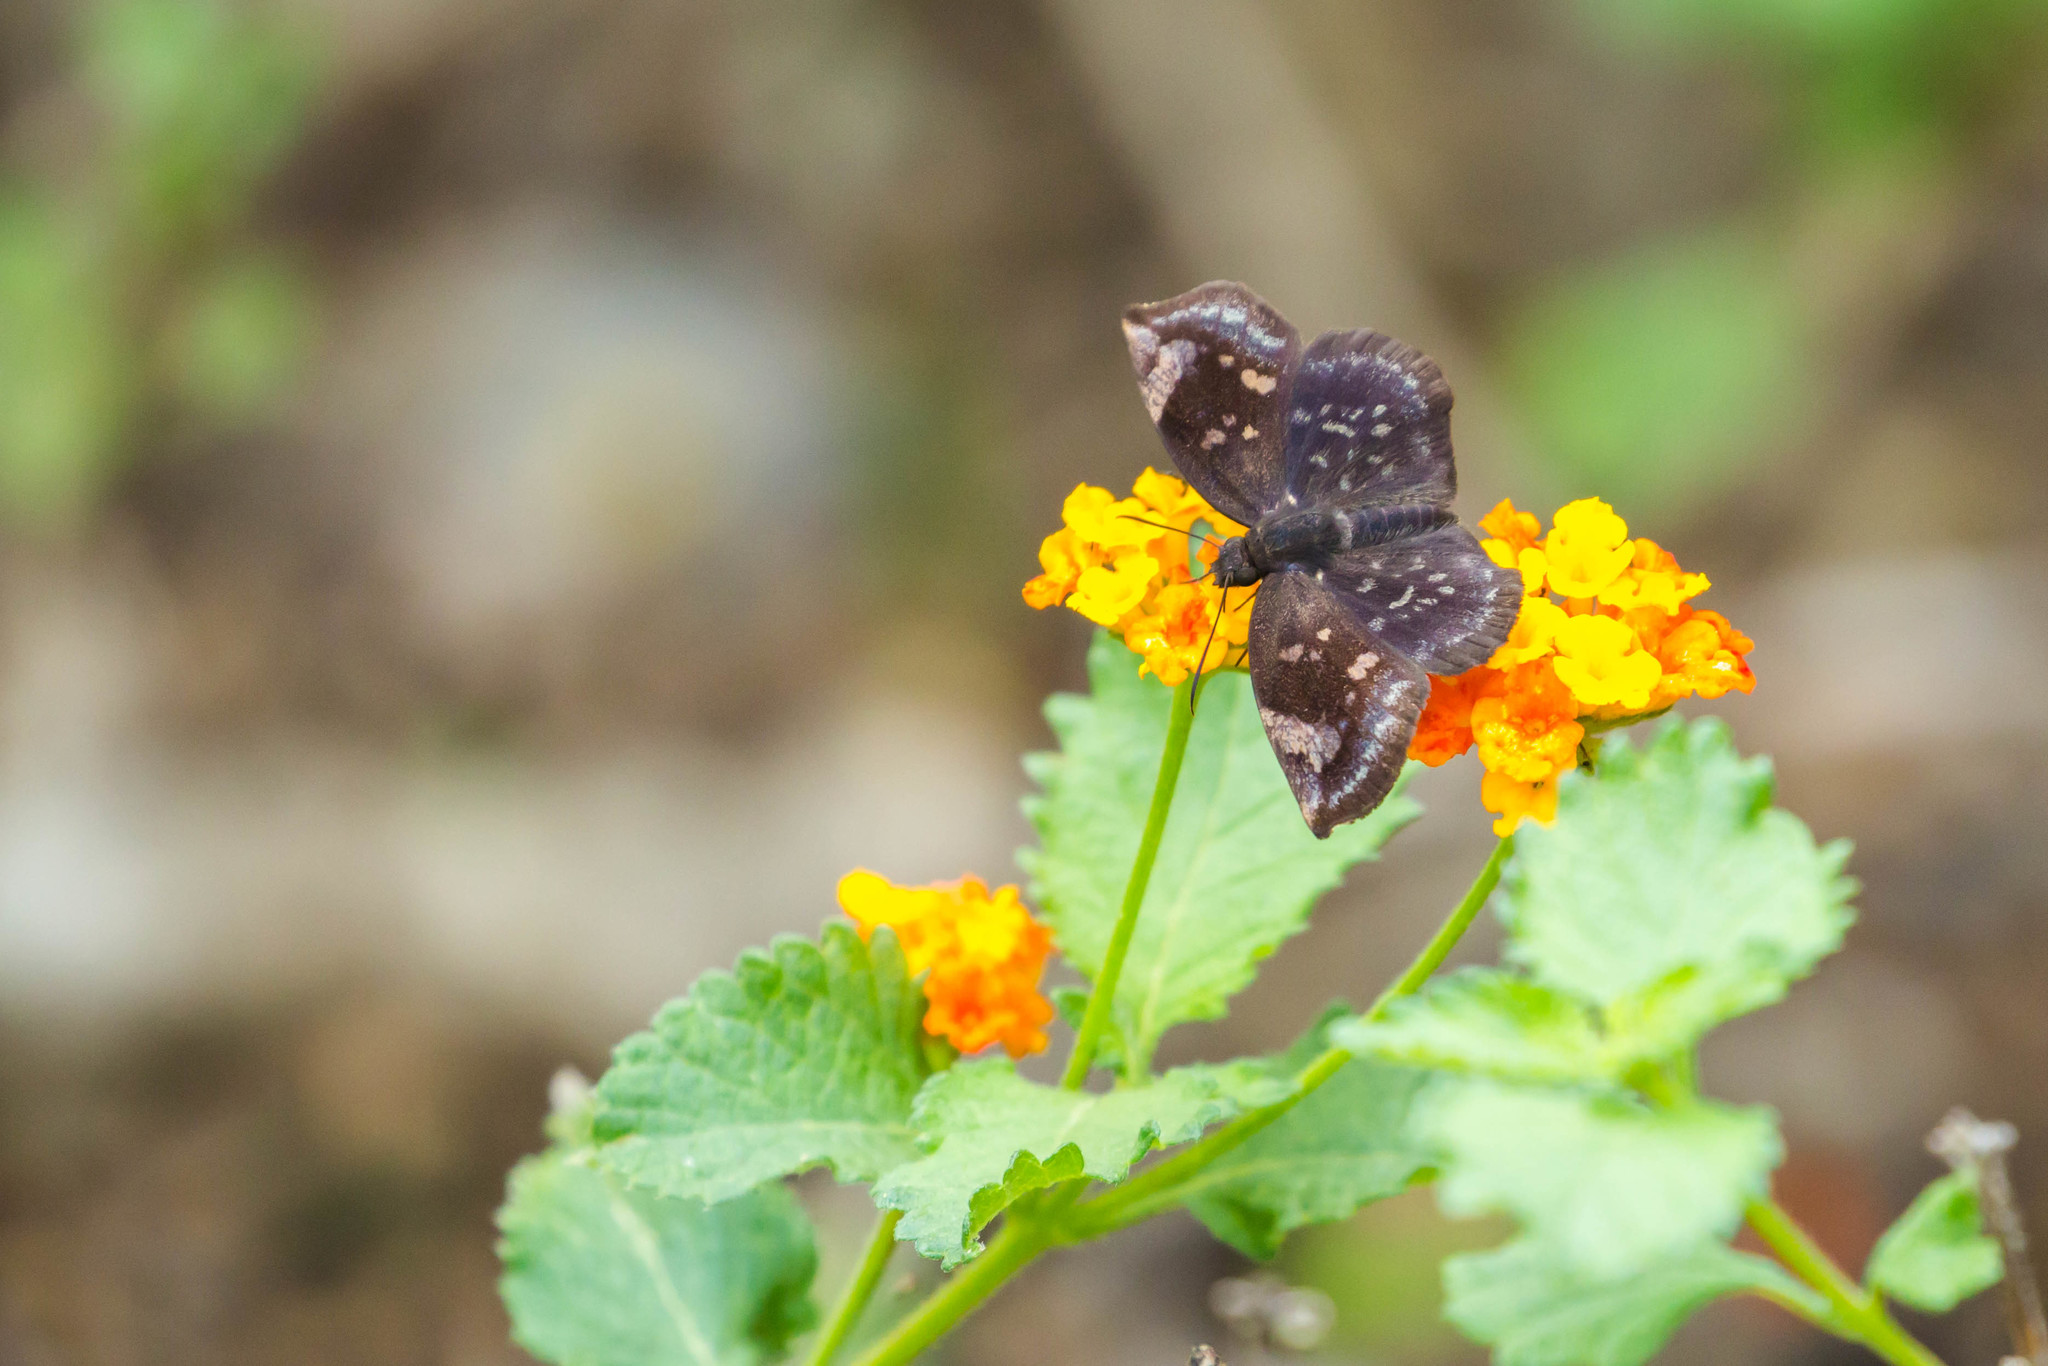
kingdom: Animalia
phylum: Arthropoda
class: Insecta
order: Lepidoptera
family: Hesperiidae
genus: Achlyodes
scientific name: Achlyodes thraso
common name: Sickle-winged skipper
